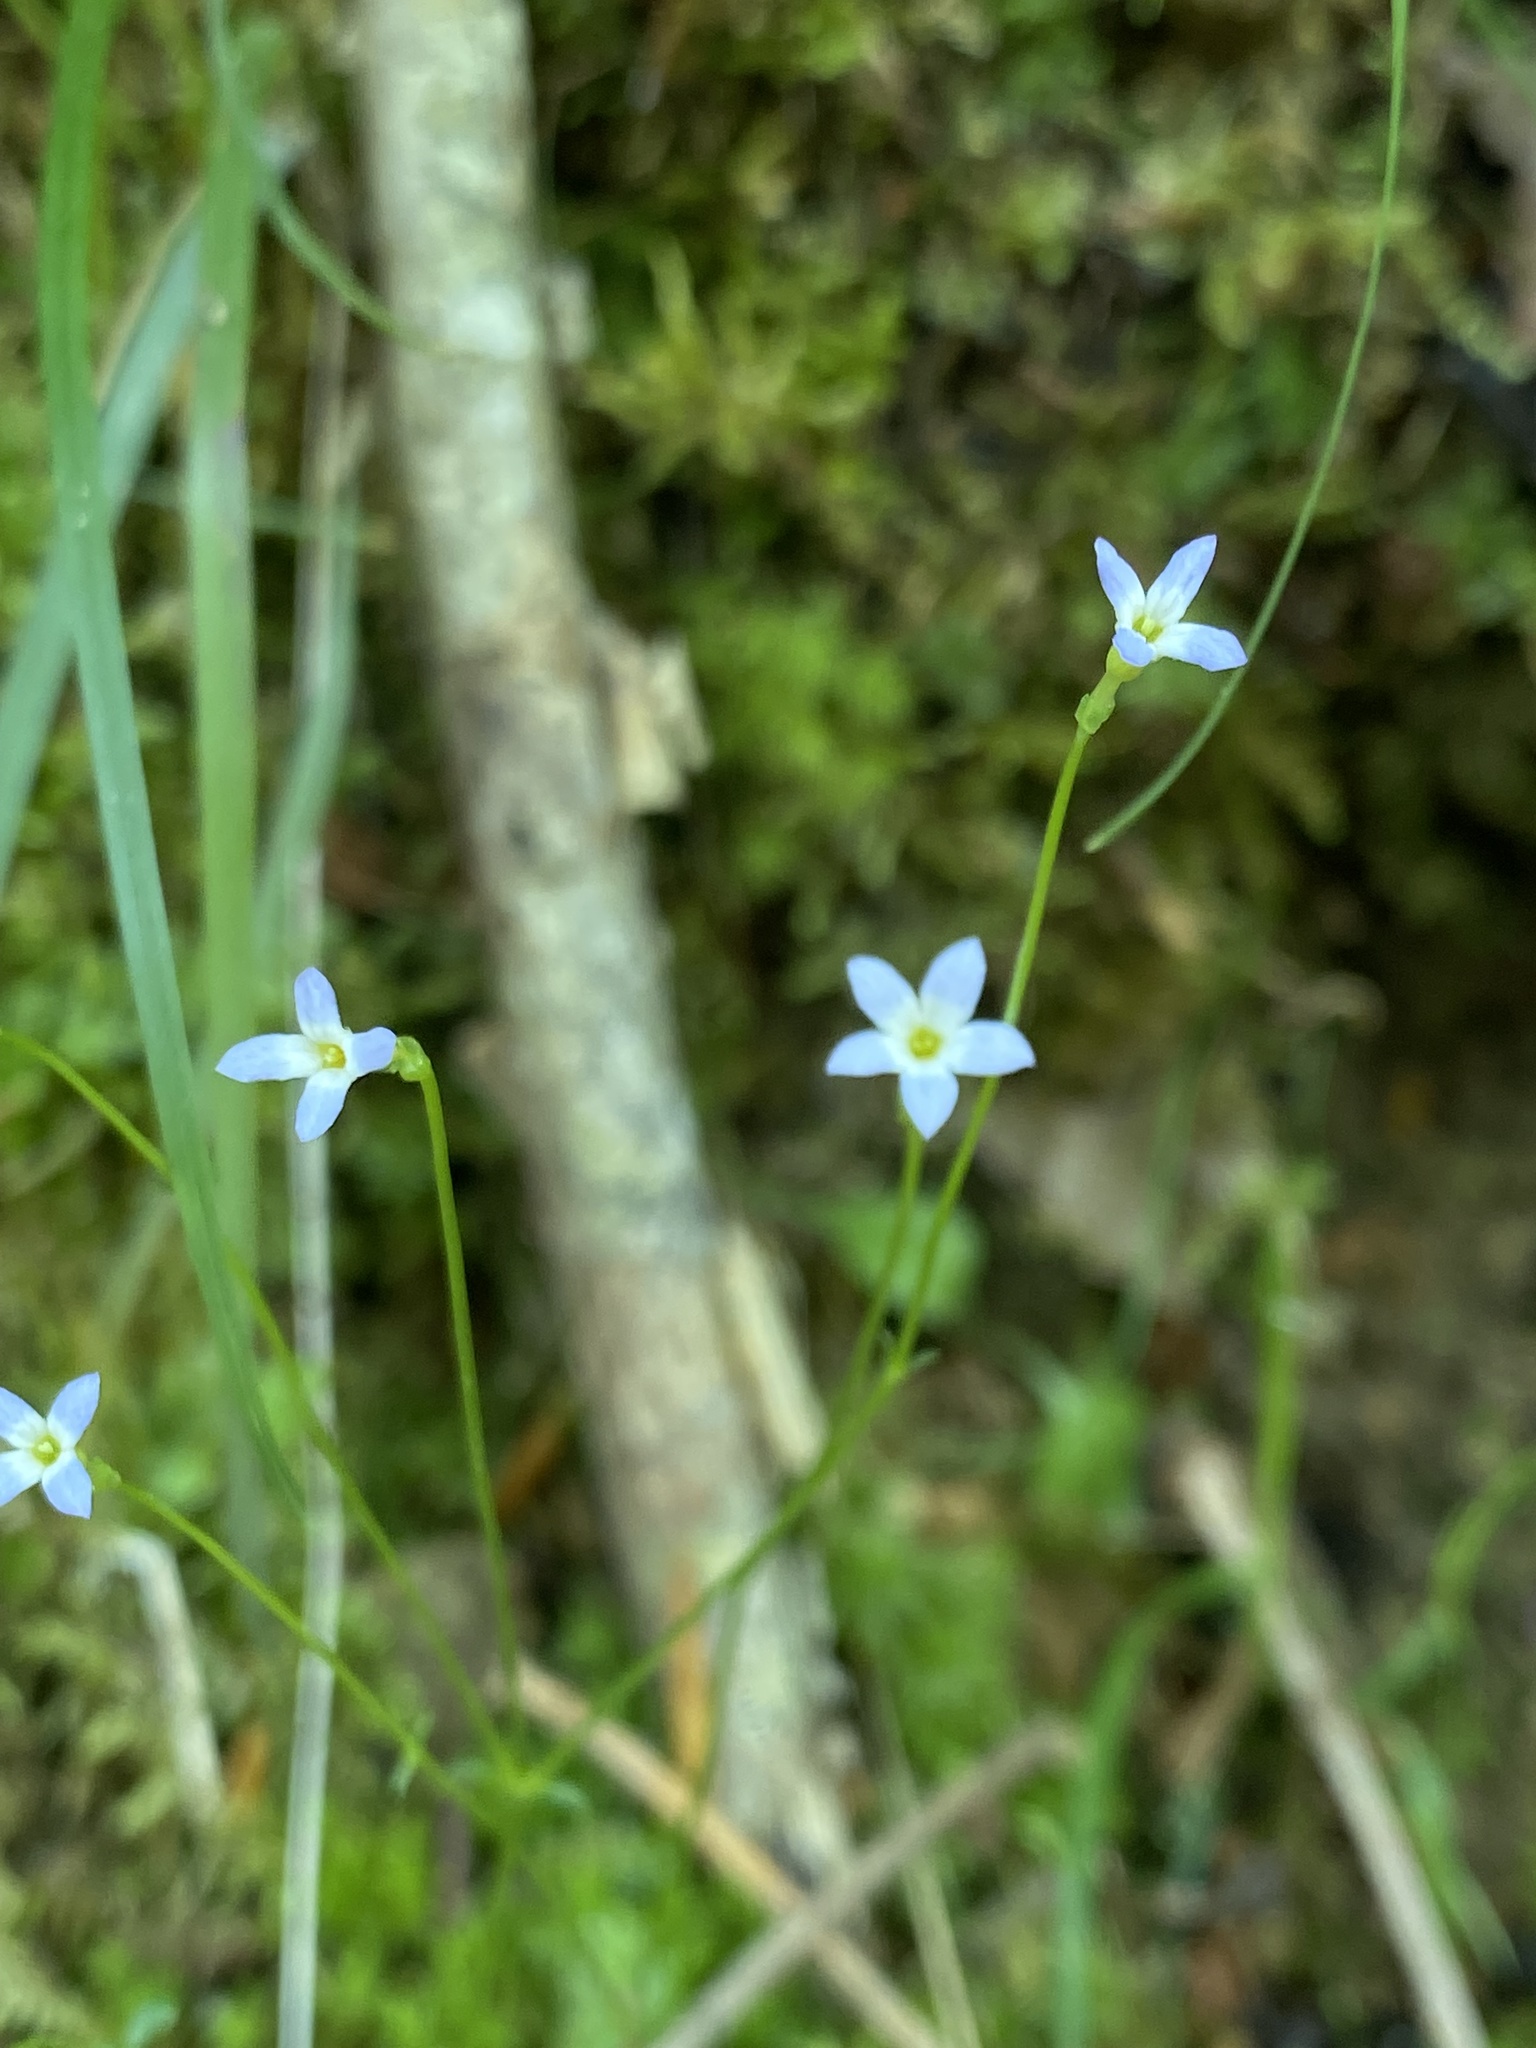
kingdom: Plantae
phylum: Tracheophyta
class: Magnoliopsida
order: Gentianales
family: Rubiaceae
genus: Houstonia
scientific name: Houstonia caerulea
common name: Bluets
